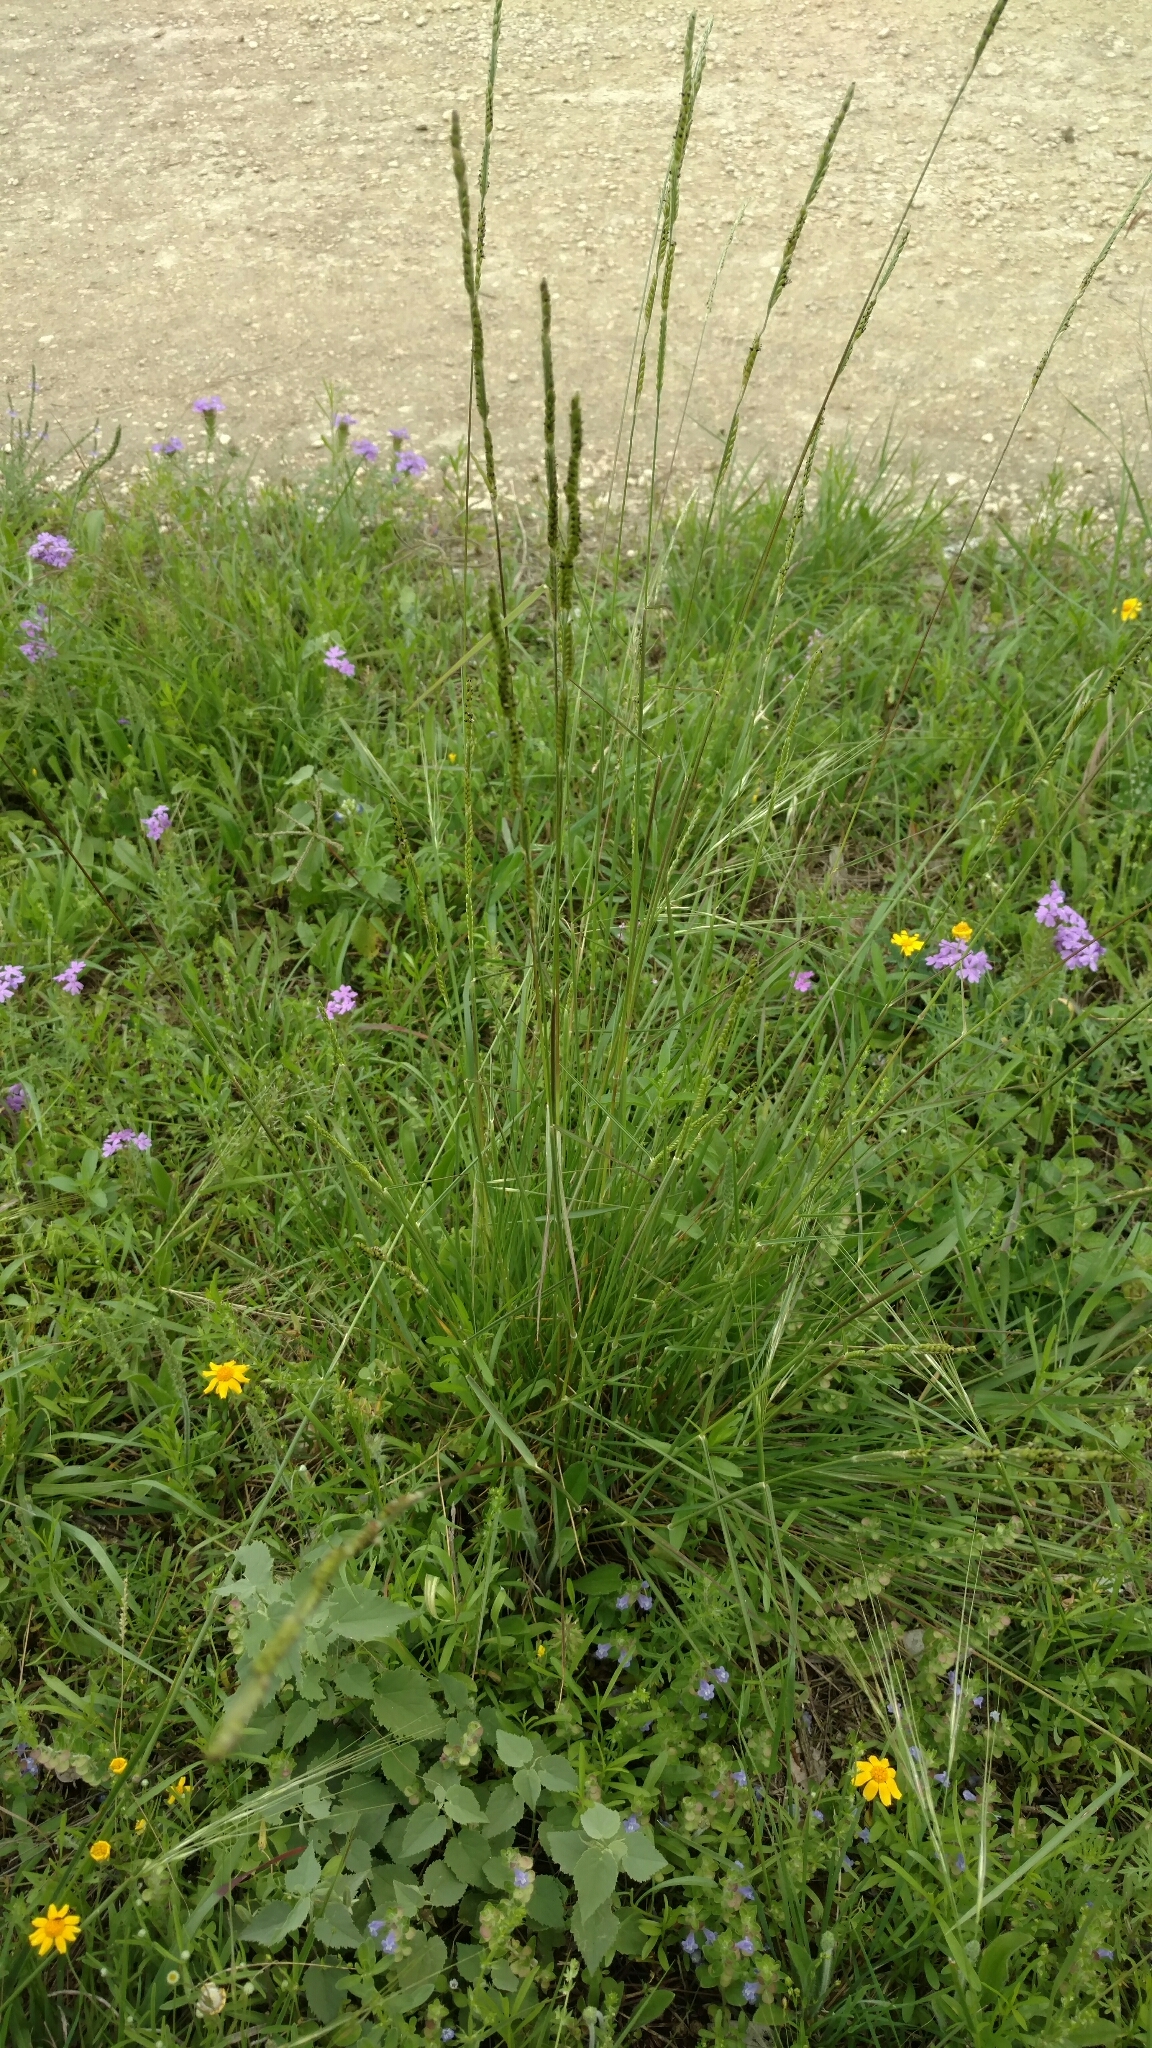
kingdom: Plantae
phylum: Tracheophyta
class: Liliopsida
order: Poales
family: Poaceae
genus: Eriochloa
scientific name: Eriochloa sericea
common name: Texas cup grass
